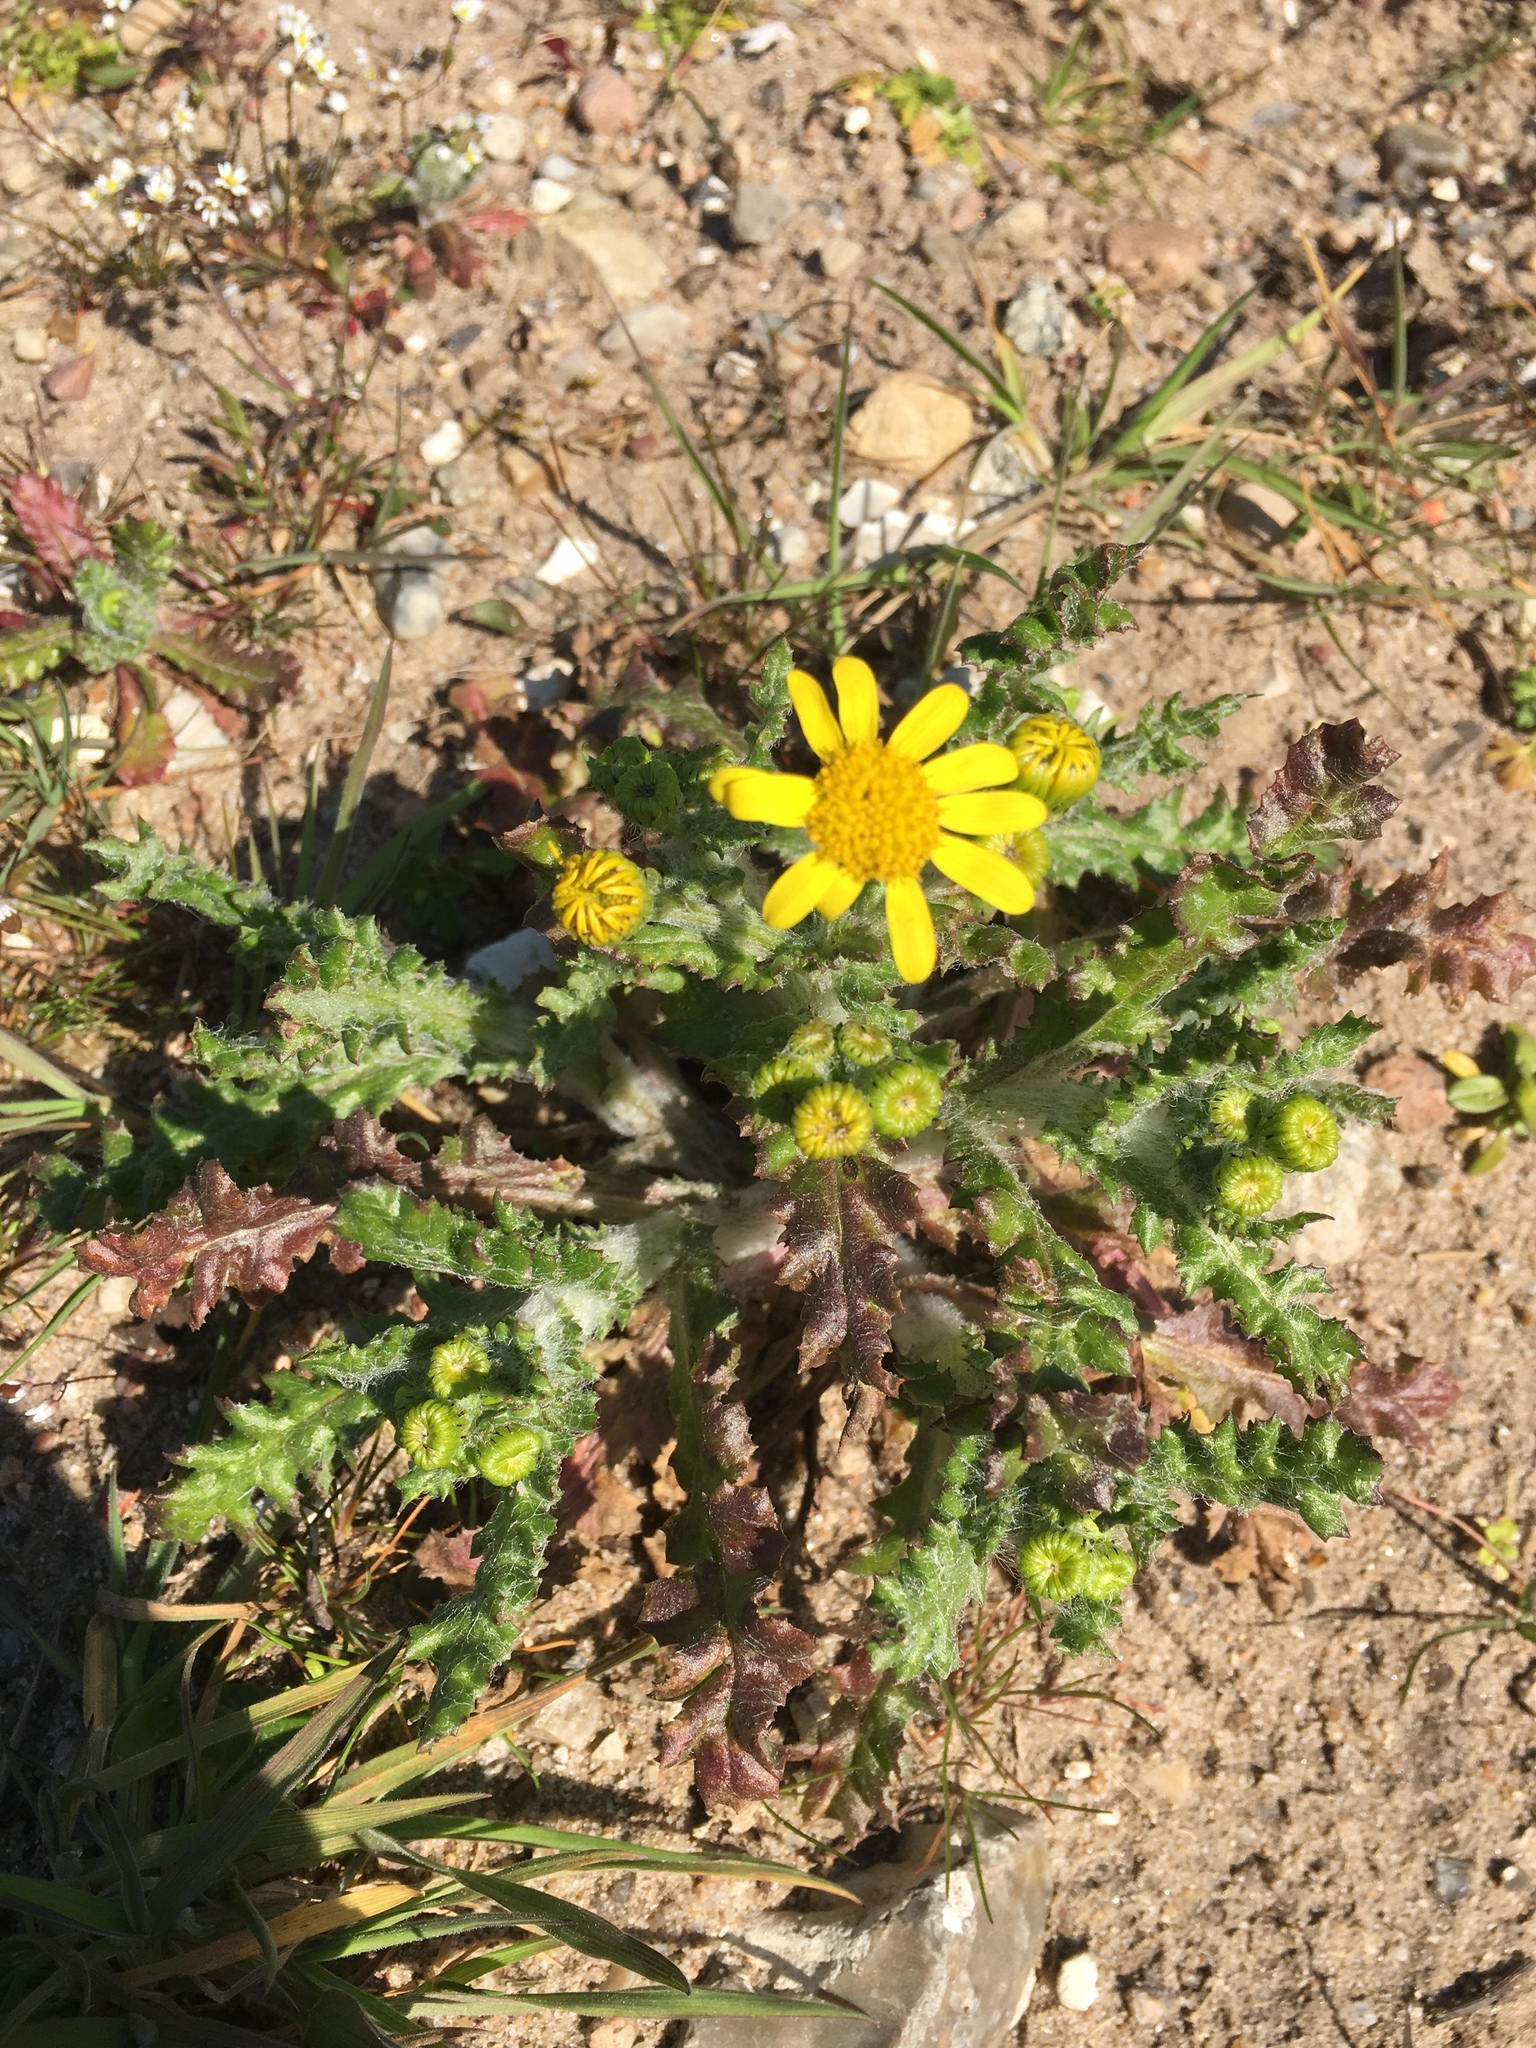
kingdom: Plantae
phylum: Tracheophyta
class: Magnoliopsida
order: Asterales
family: Asteraceae
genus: Senecio
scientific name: Senecio vernalis
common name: Eastern groundsel
